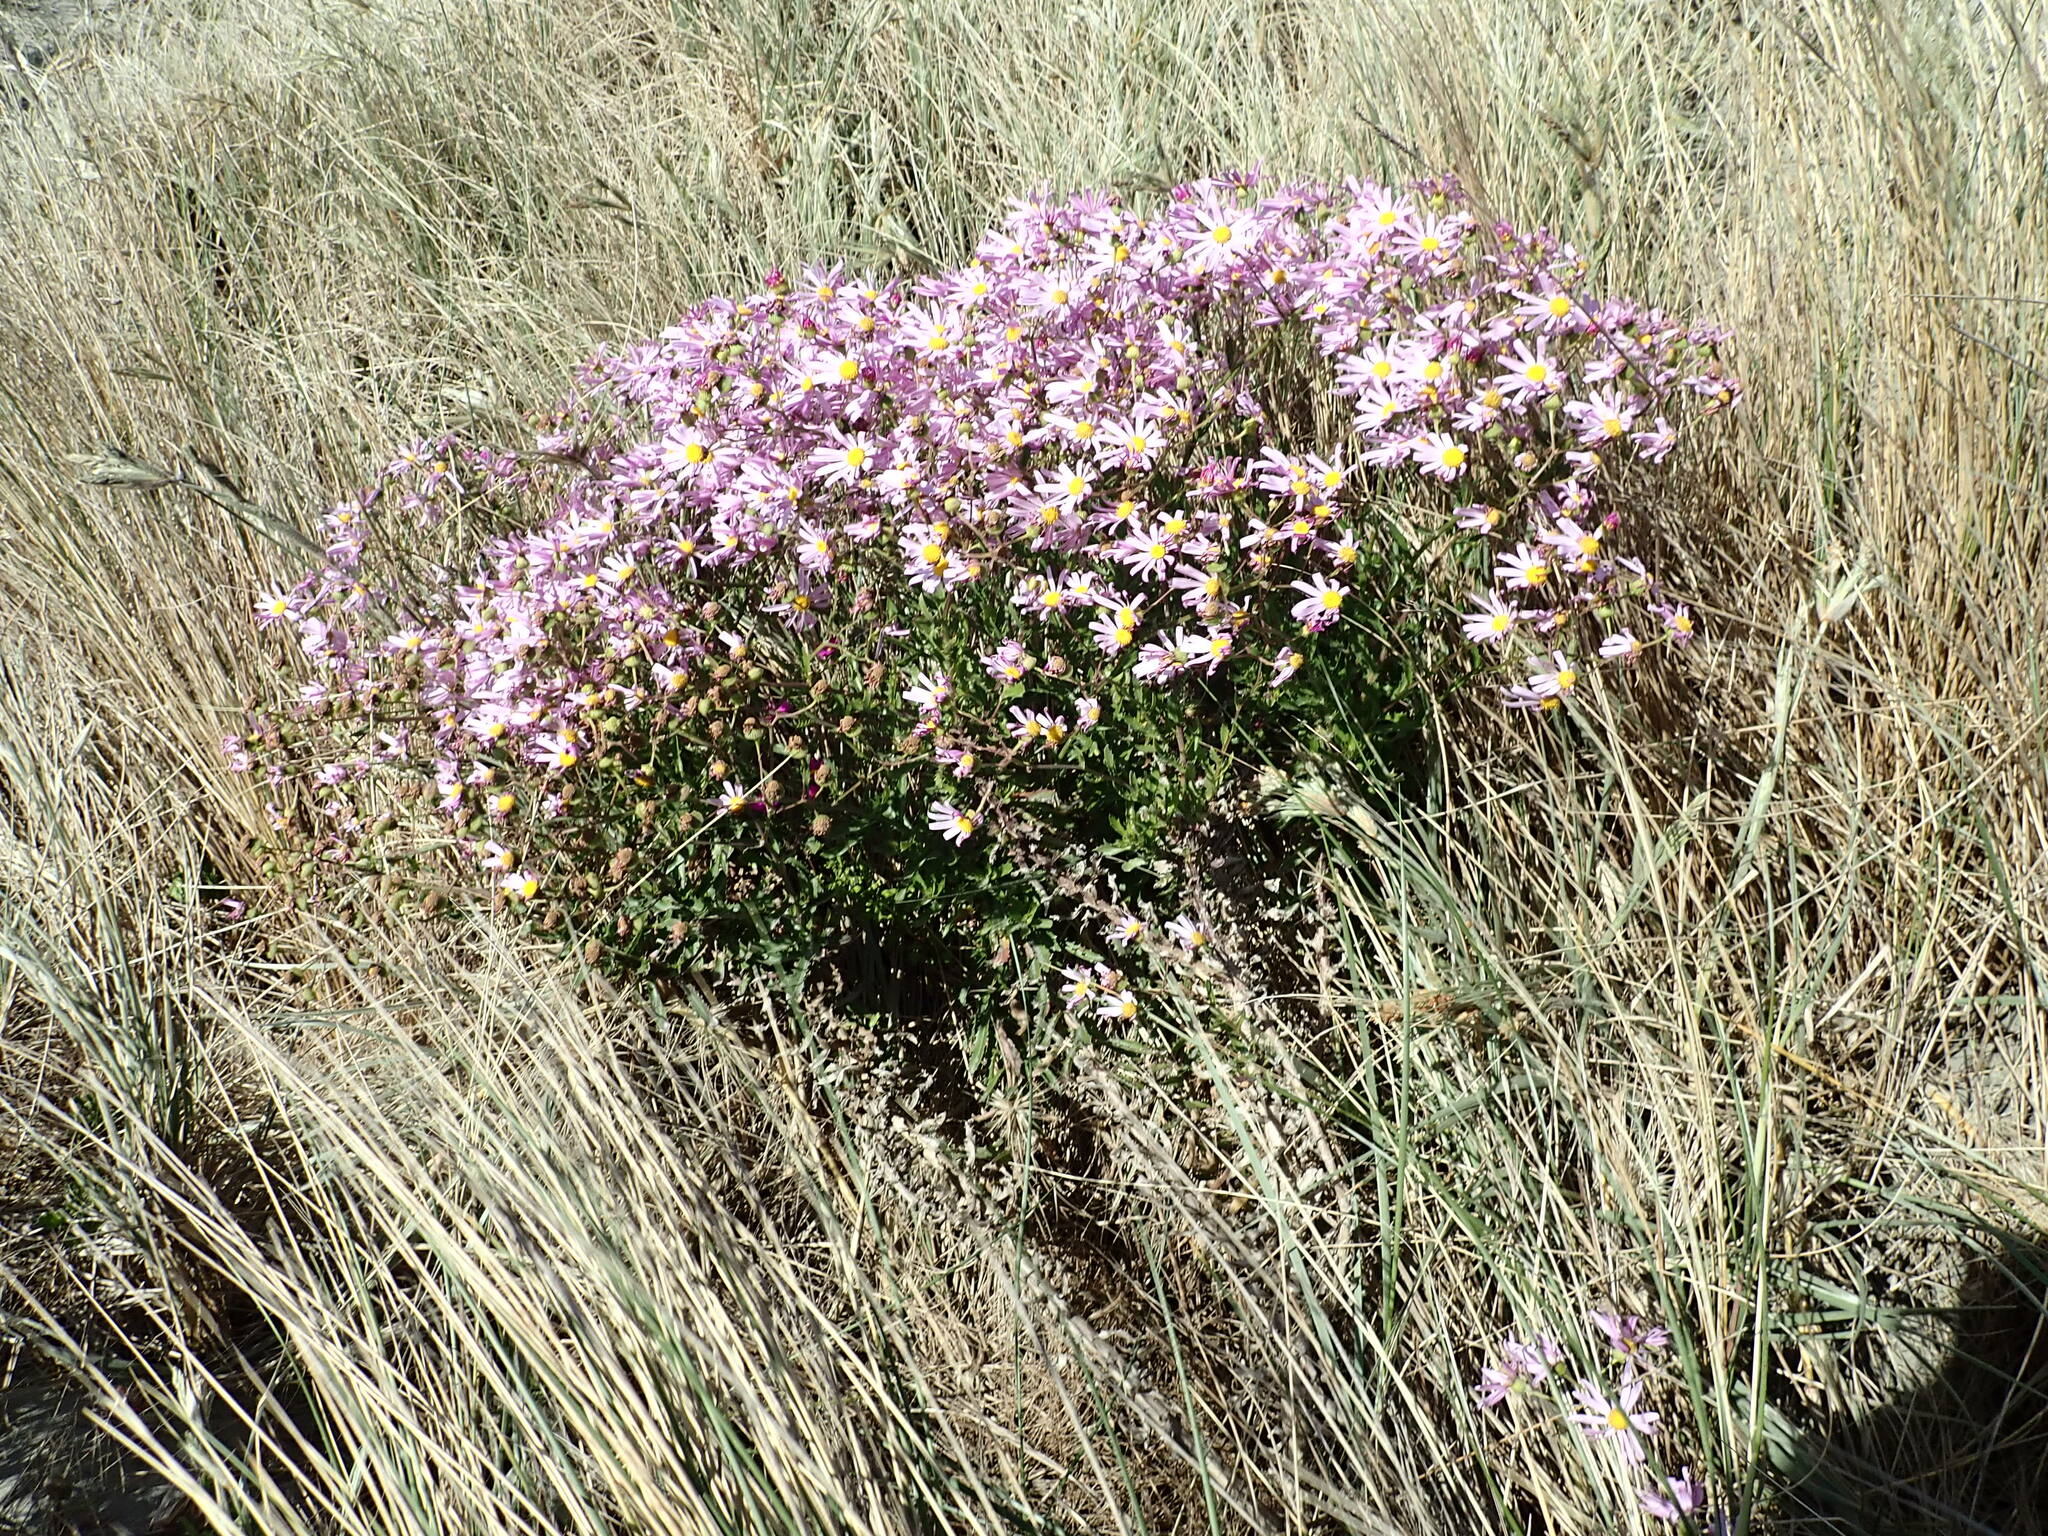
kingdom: Plantae
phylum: Tracheophyta
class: Magnoliopsida
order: Asterales
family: Asteraceae
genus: Senecio
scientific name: Senecio glastifolius
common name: Woad-leaved ragwort
